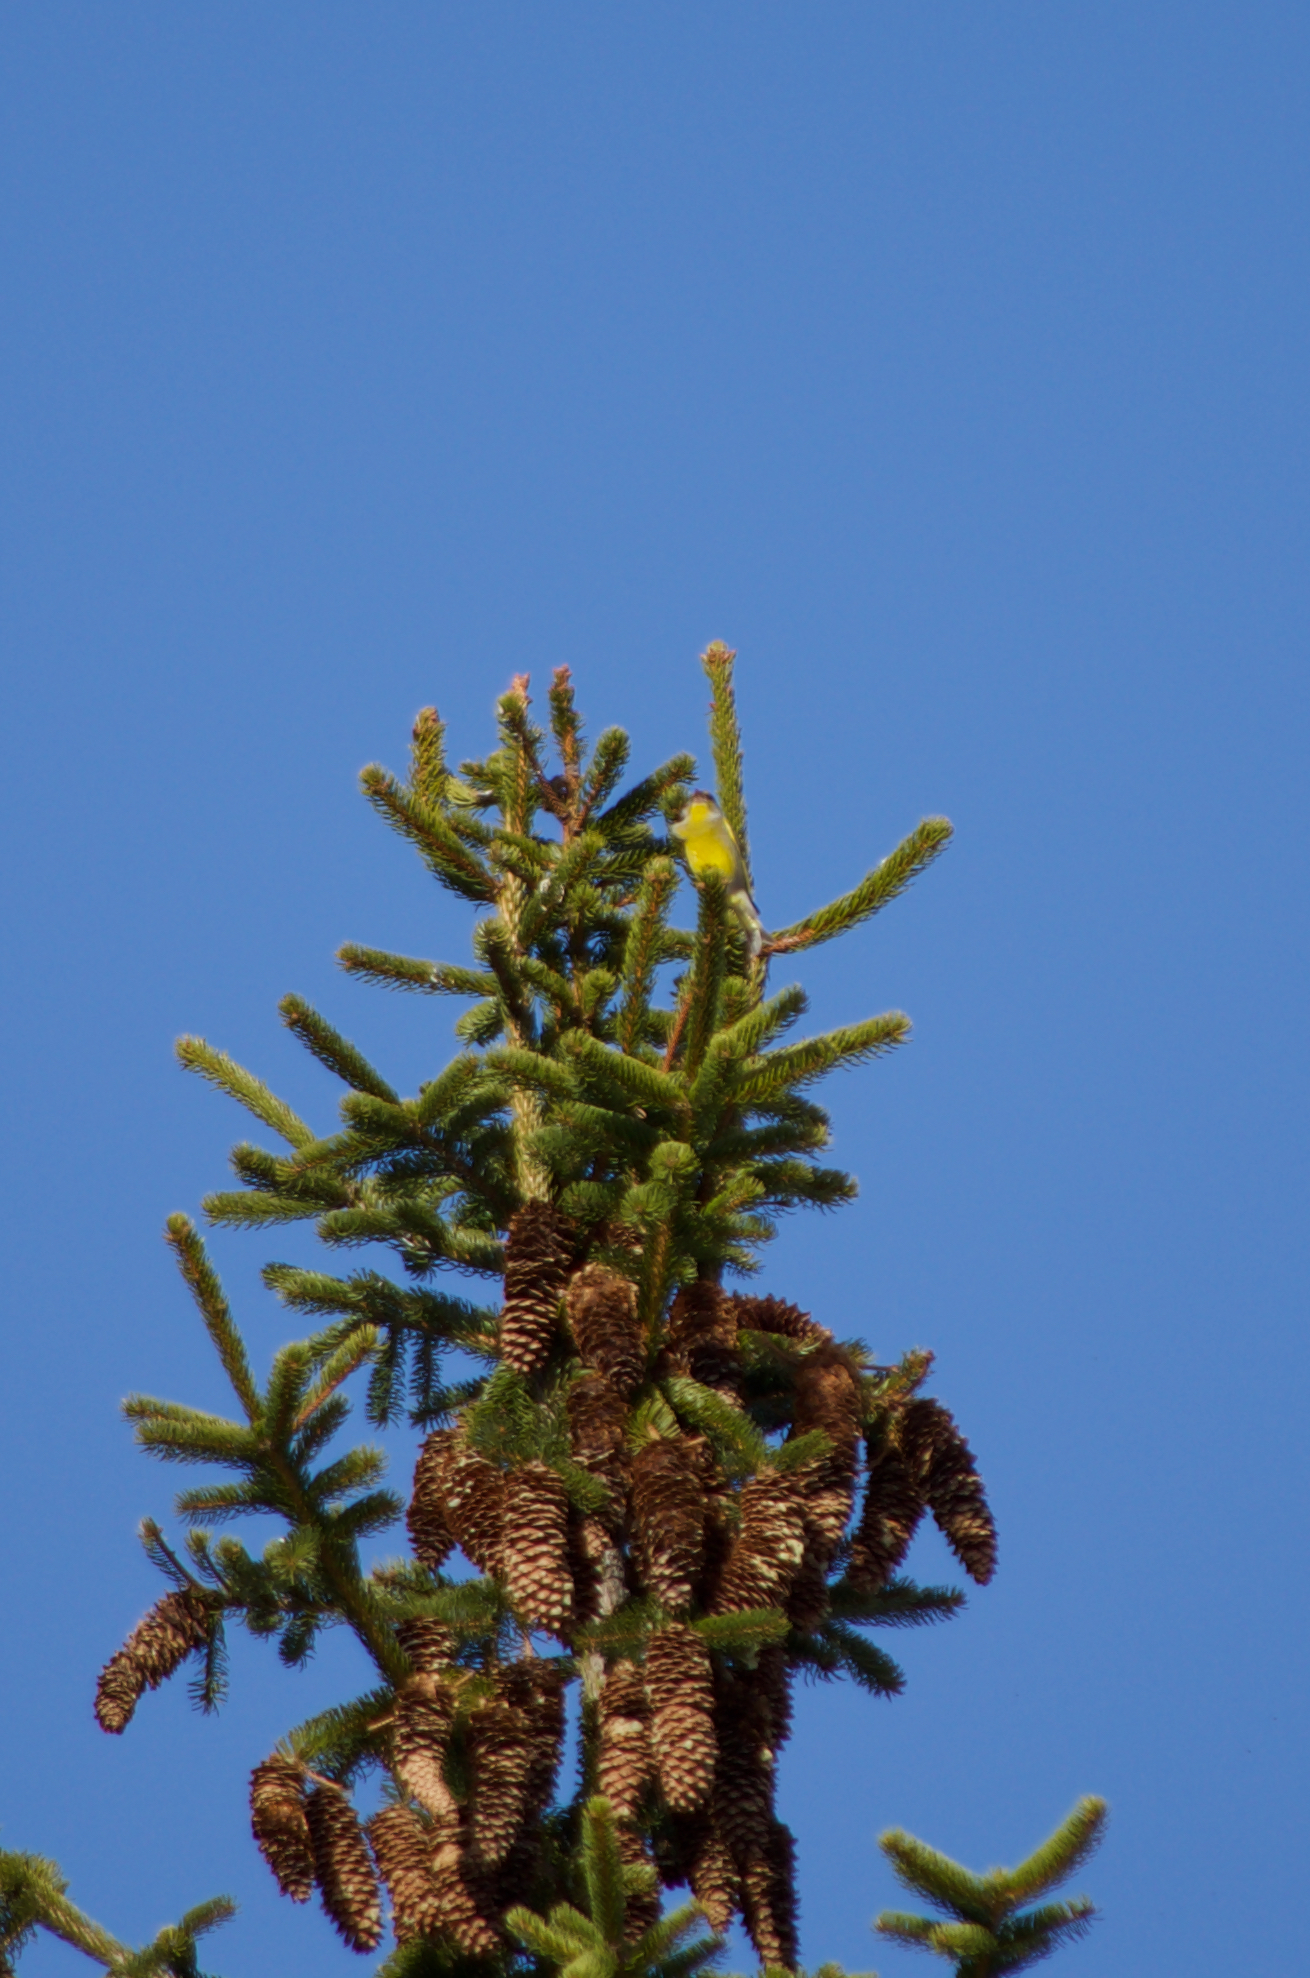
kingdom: Plantae
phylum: Tracheophyta
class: Liliopsida
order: Poales
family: Poaceae
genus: Chloris
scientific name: Chloris chloris
